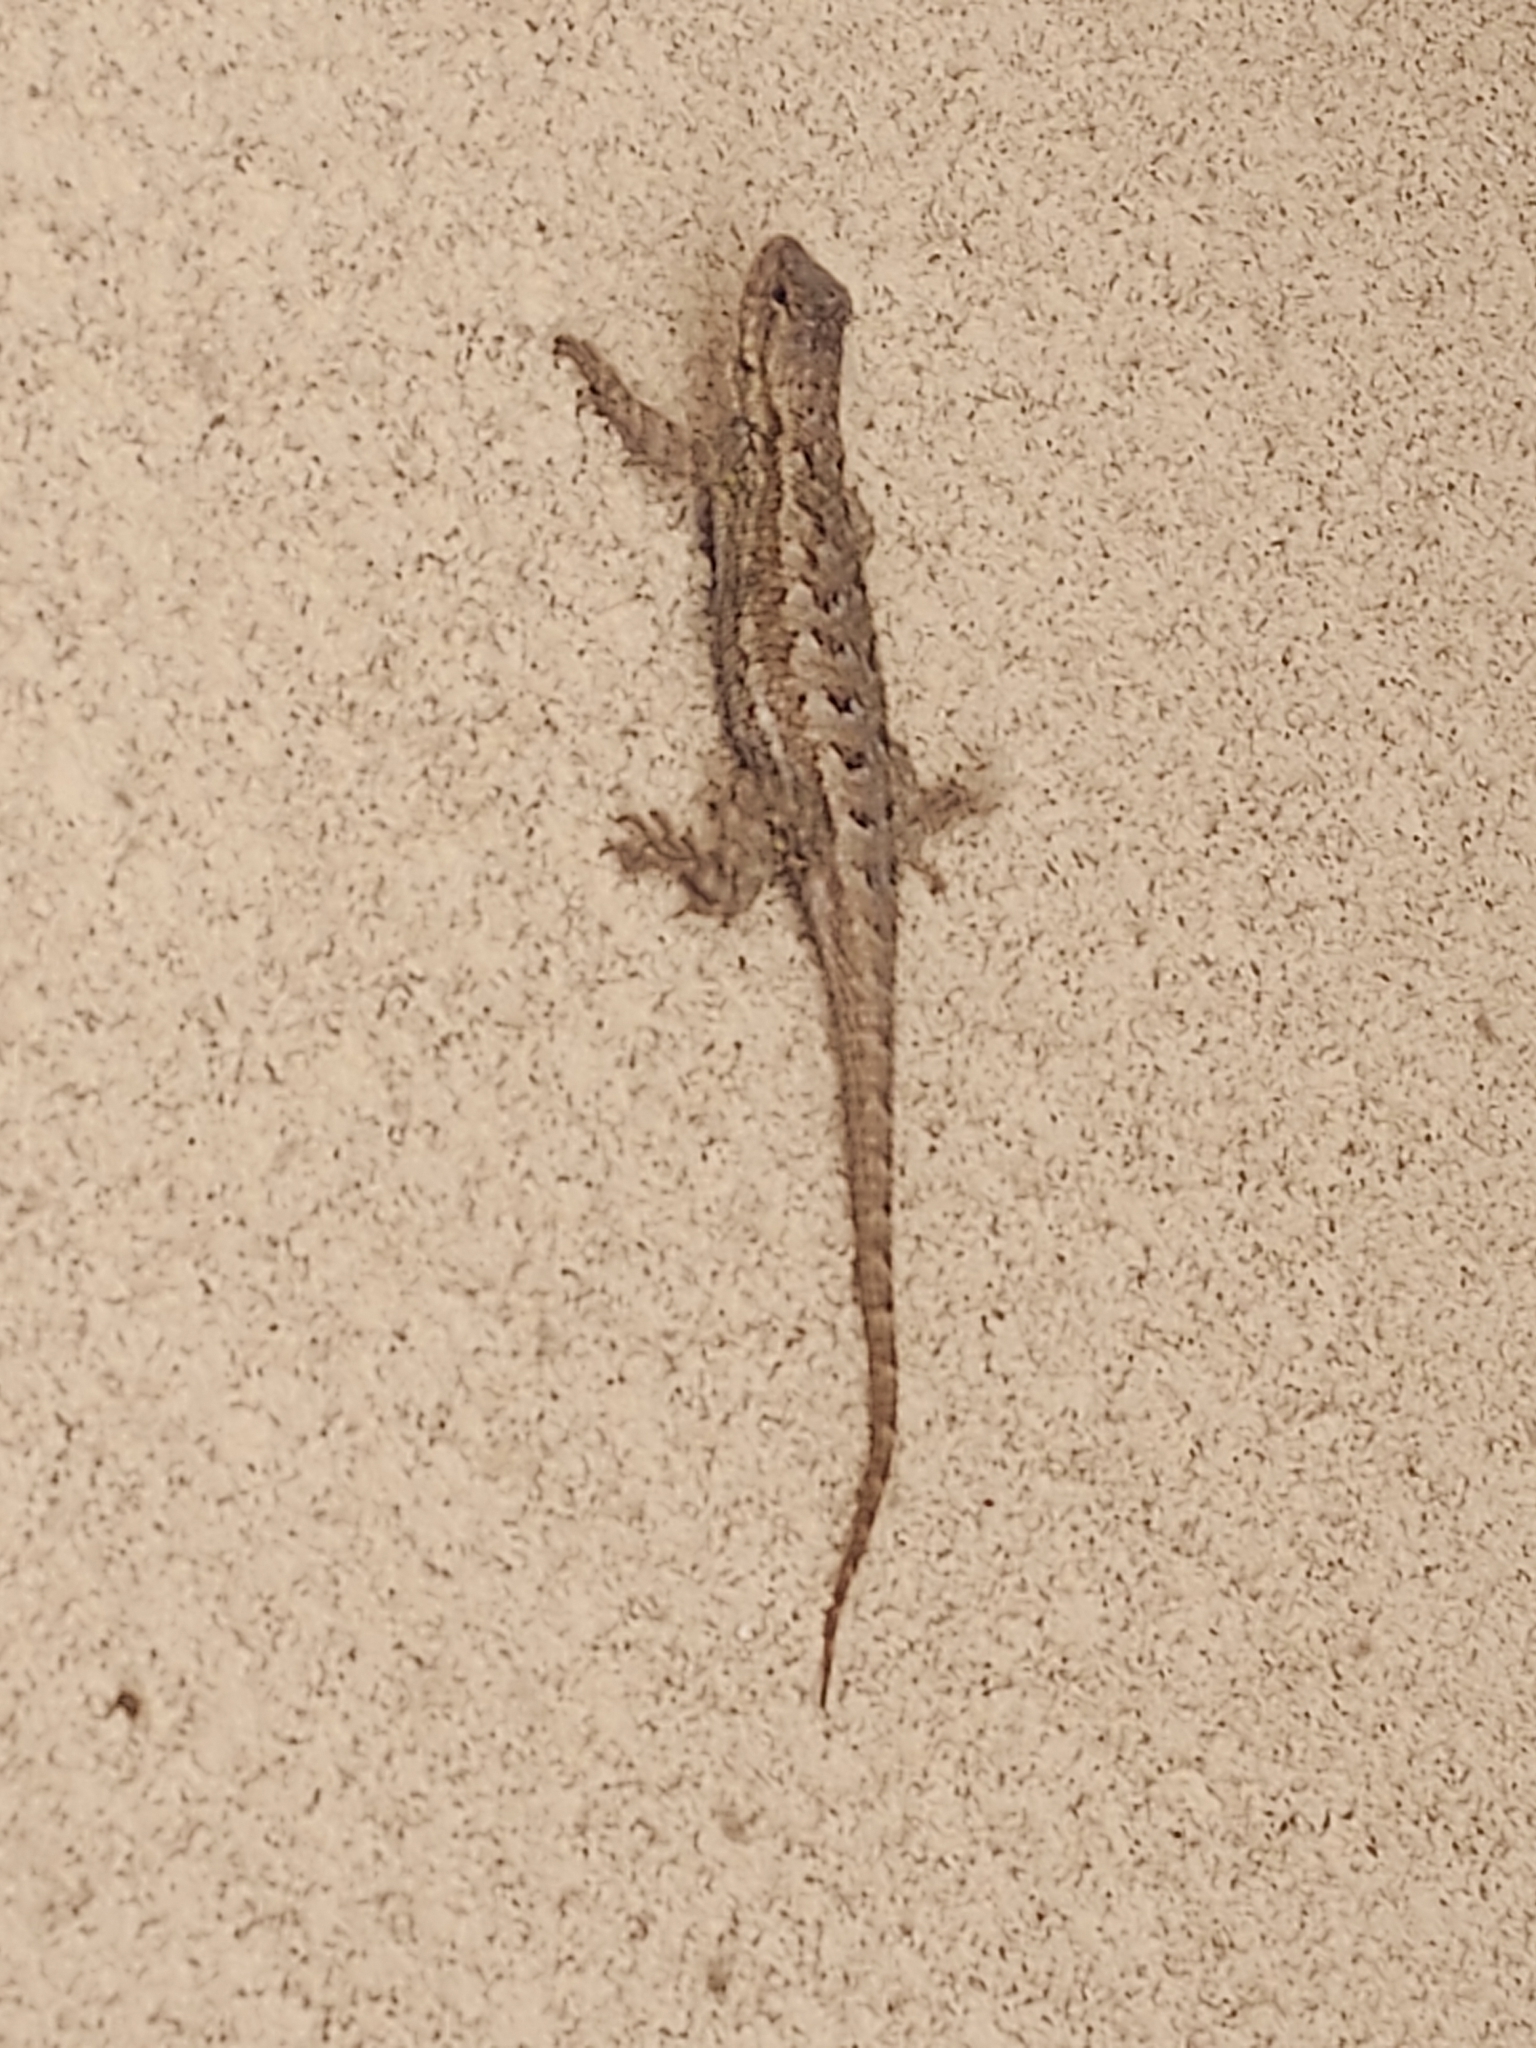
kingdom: Animalia
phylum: Chordata
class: Squamata
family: Phrynosomatidae
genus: Sceloporus
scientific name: Sceloporus occidentalis
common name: Western fence lizard
